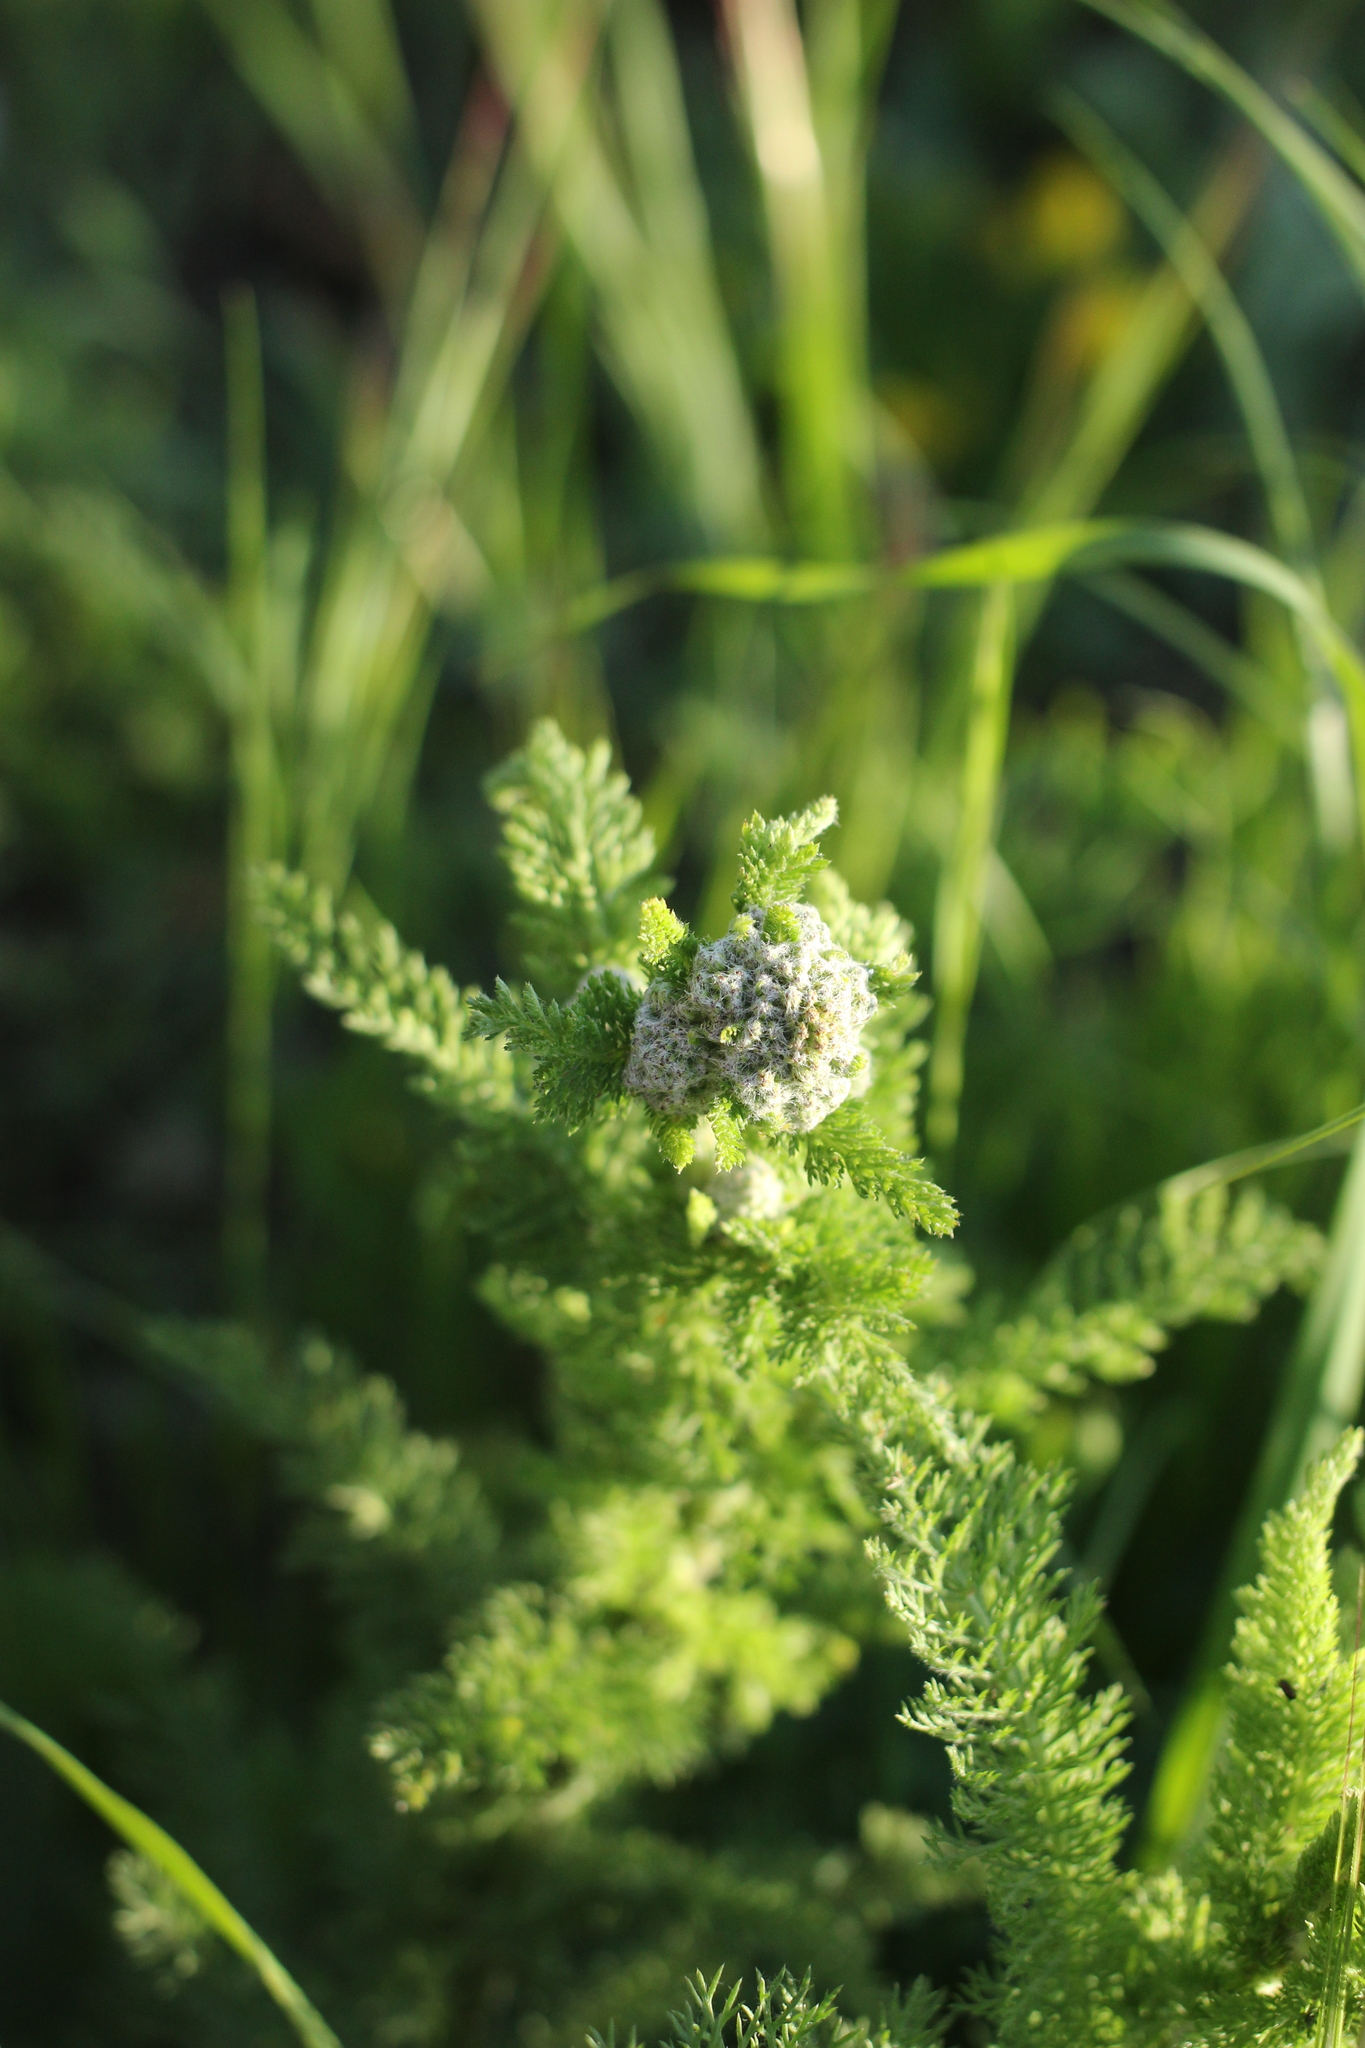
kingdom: Plantae
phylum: Tracheophyta
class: Magnoliopsida
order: Asterales
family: Asteraceae
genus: Achillea
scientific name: Achillea millefolium
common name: Yarrow
